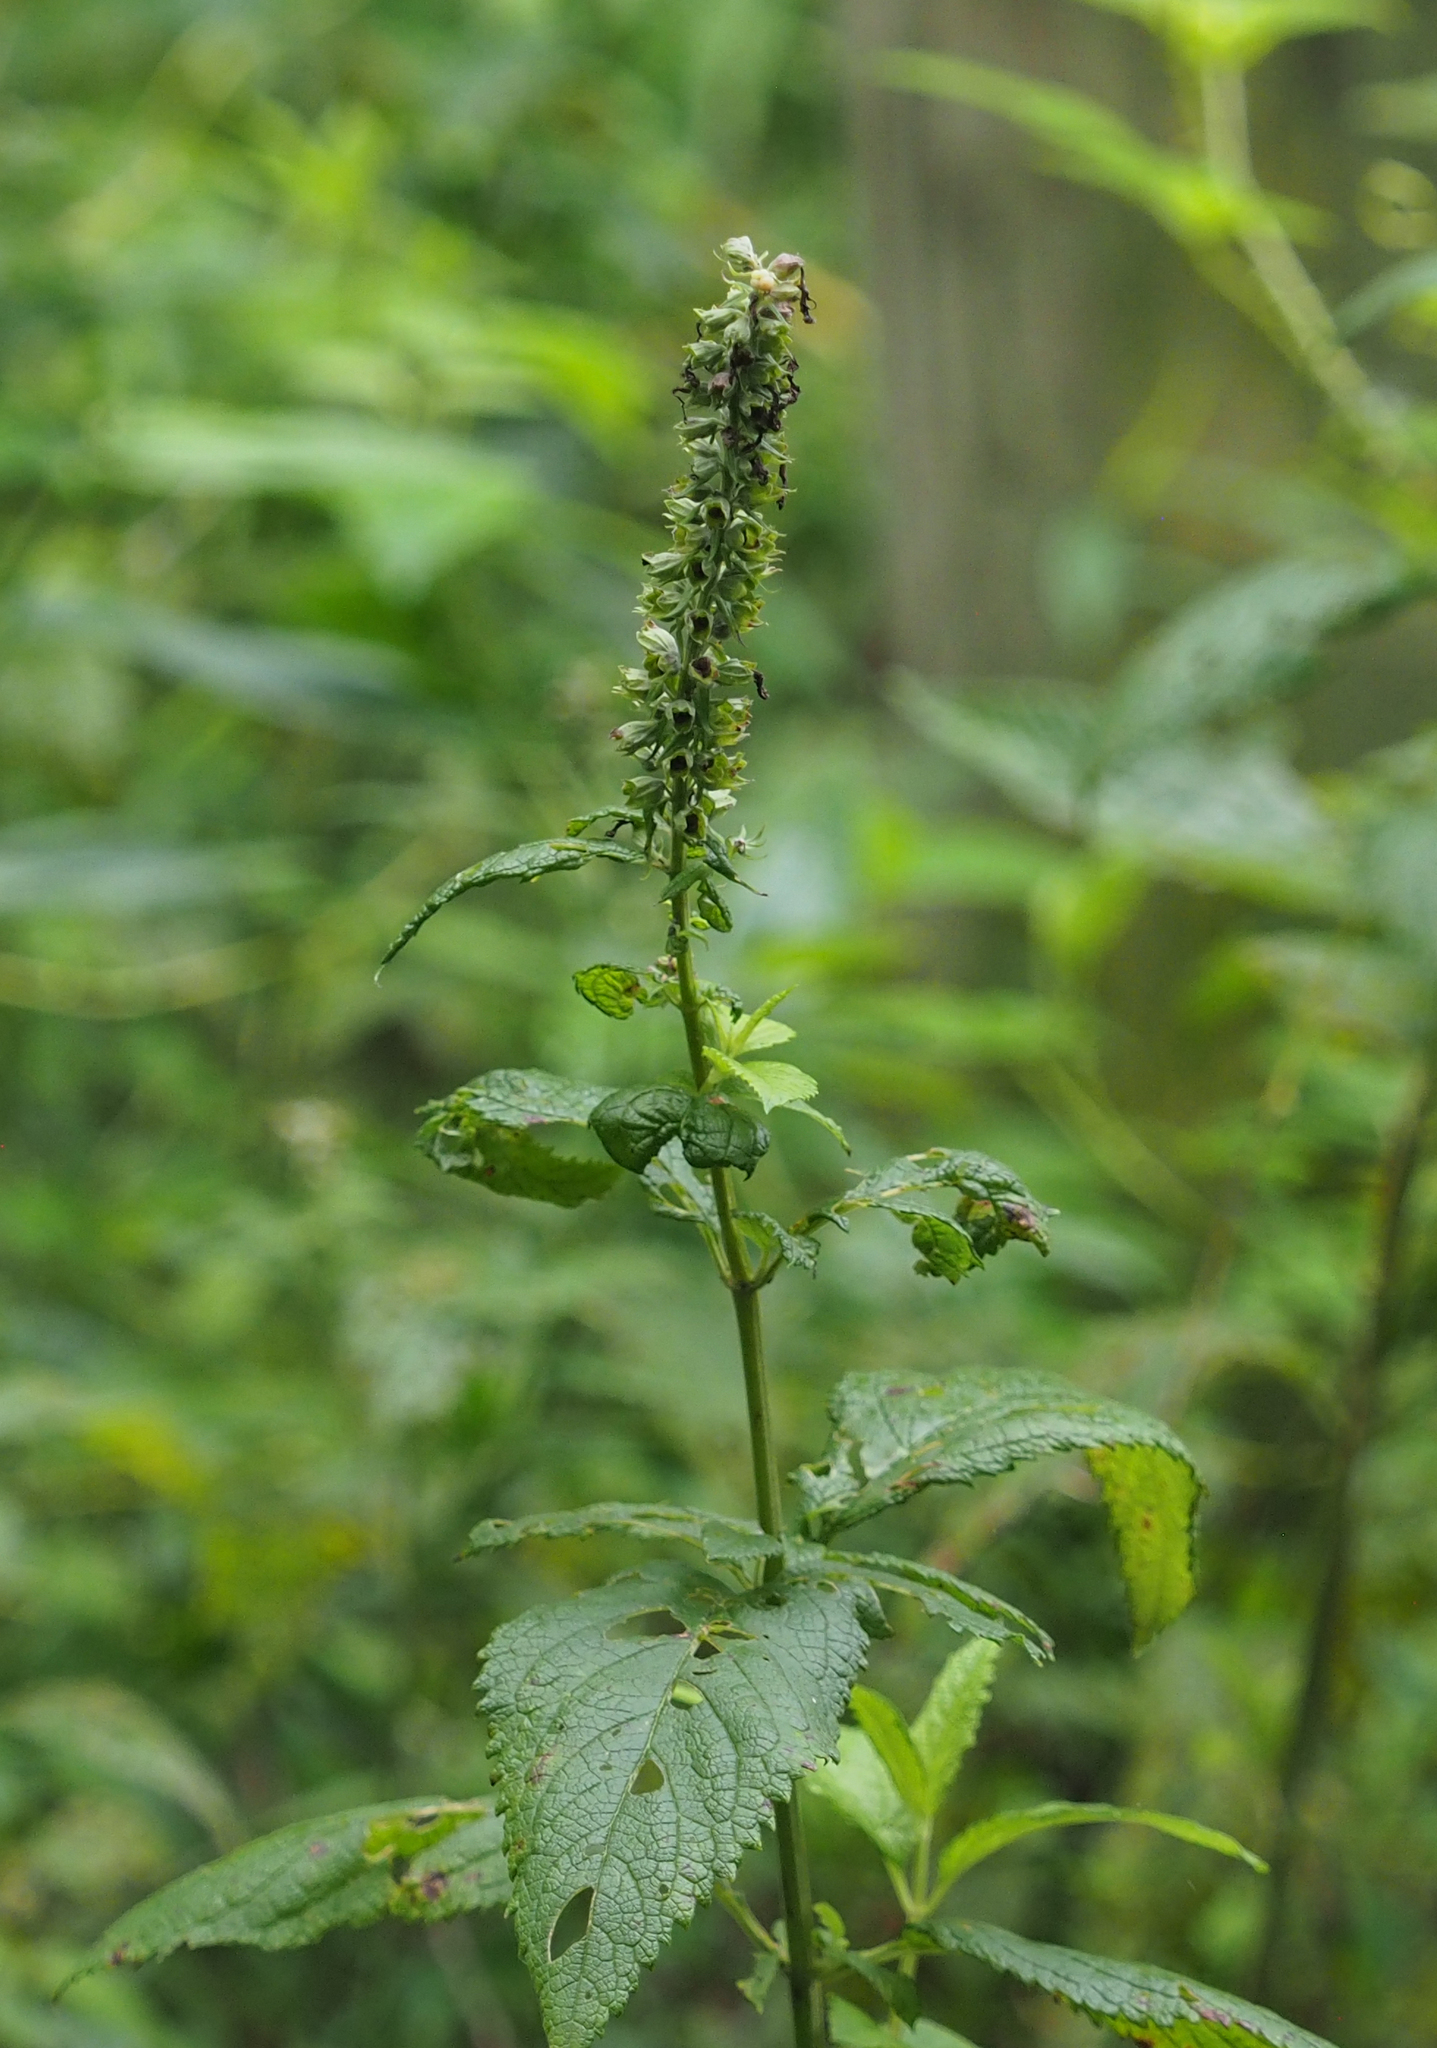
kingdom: Plantae
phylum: Tracheophyta
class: Magnoliopsida
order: Lamiales
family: Lamiaceae
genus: Teucrium
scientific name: Teucrium canadense
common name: American germander
